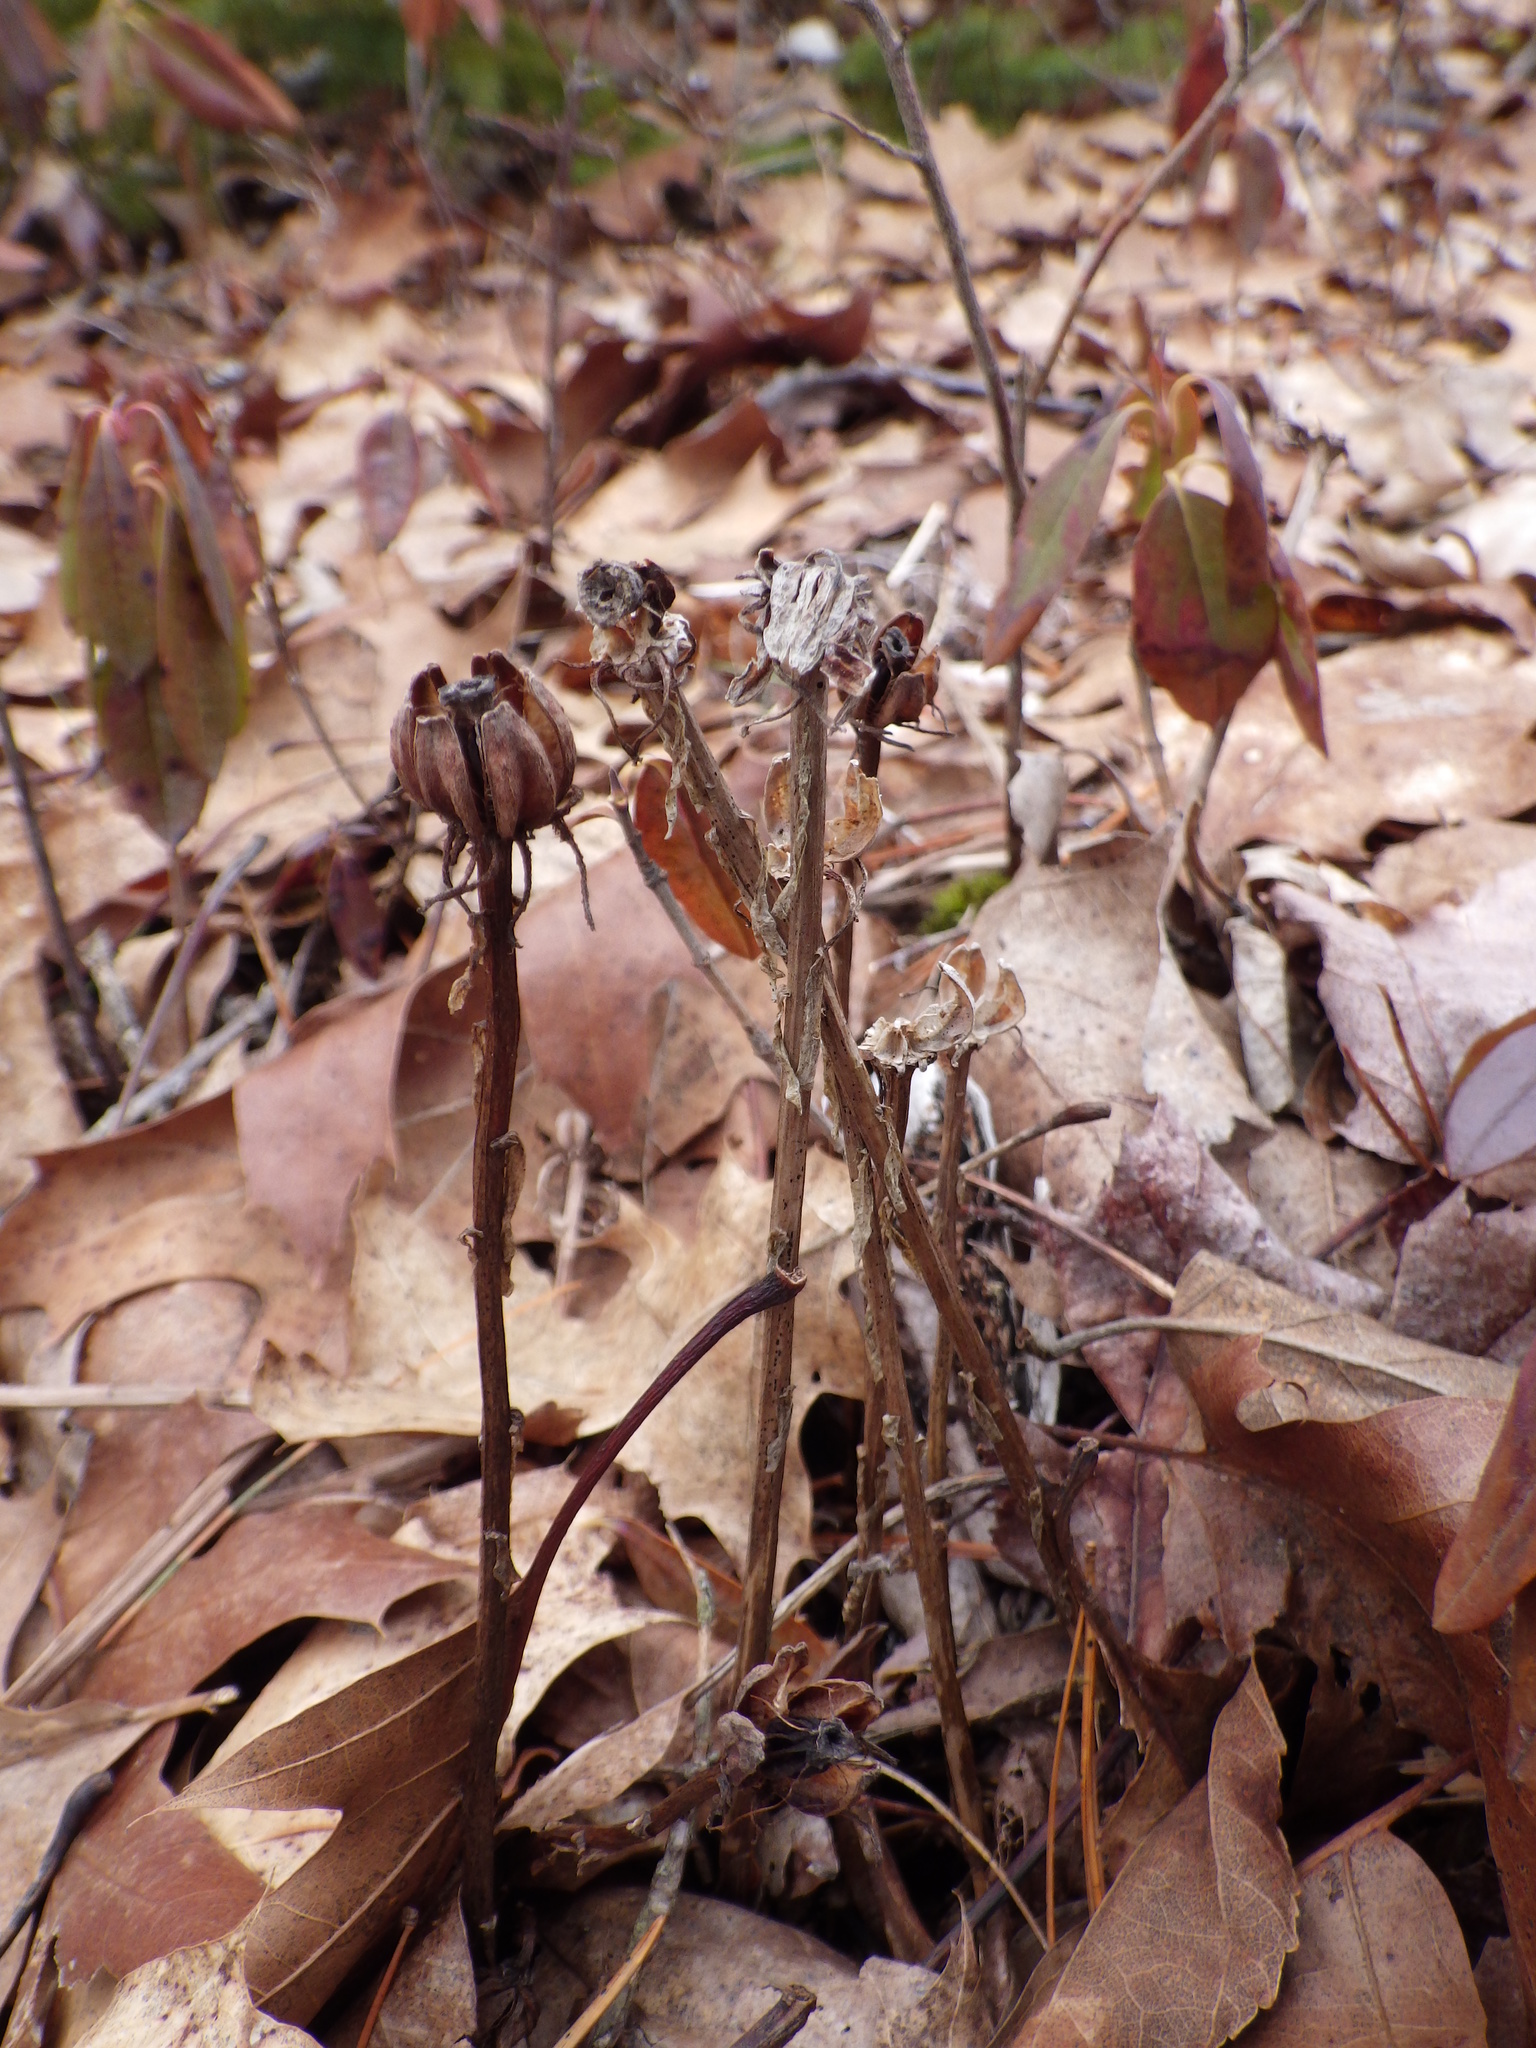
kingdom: Plantae
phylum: Tracheophyta
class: Magnoliopsida
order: Ericales
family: Ericaceae
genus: Monotropa
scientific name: Monotropa uniflora
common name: Convulsion root
